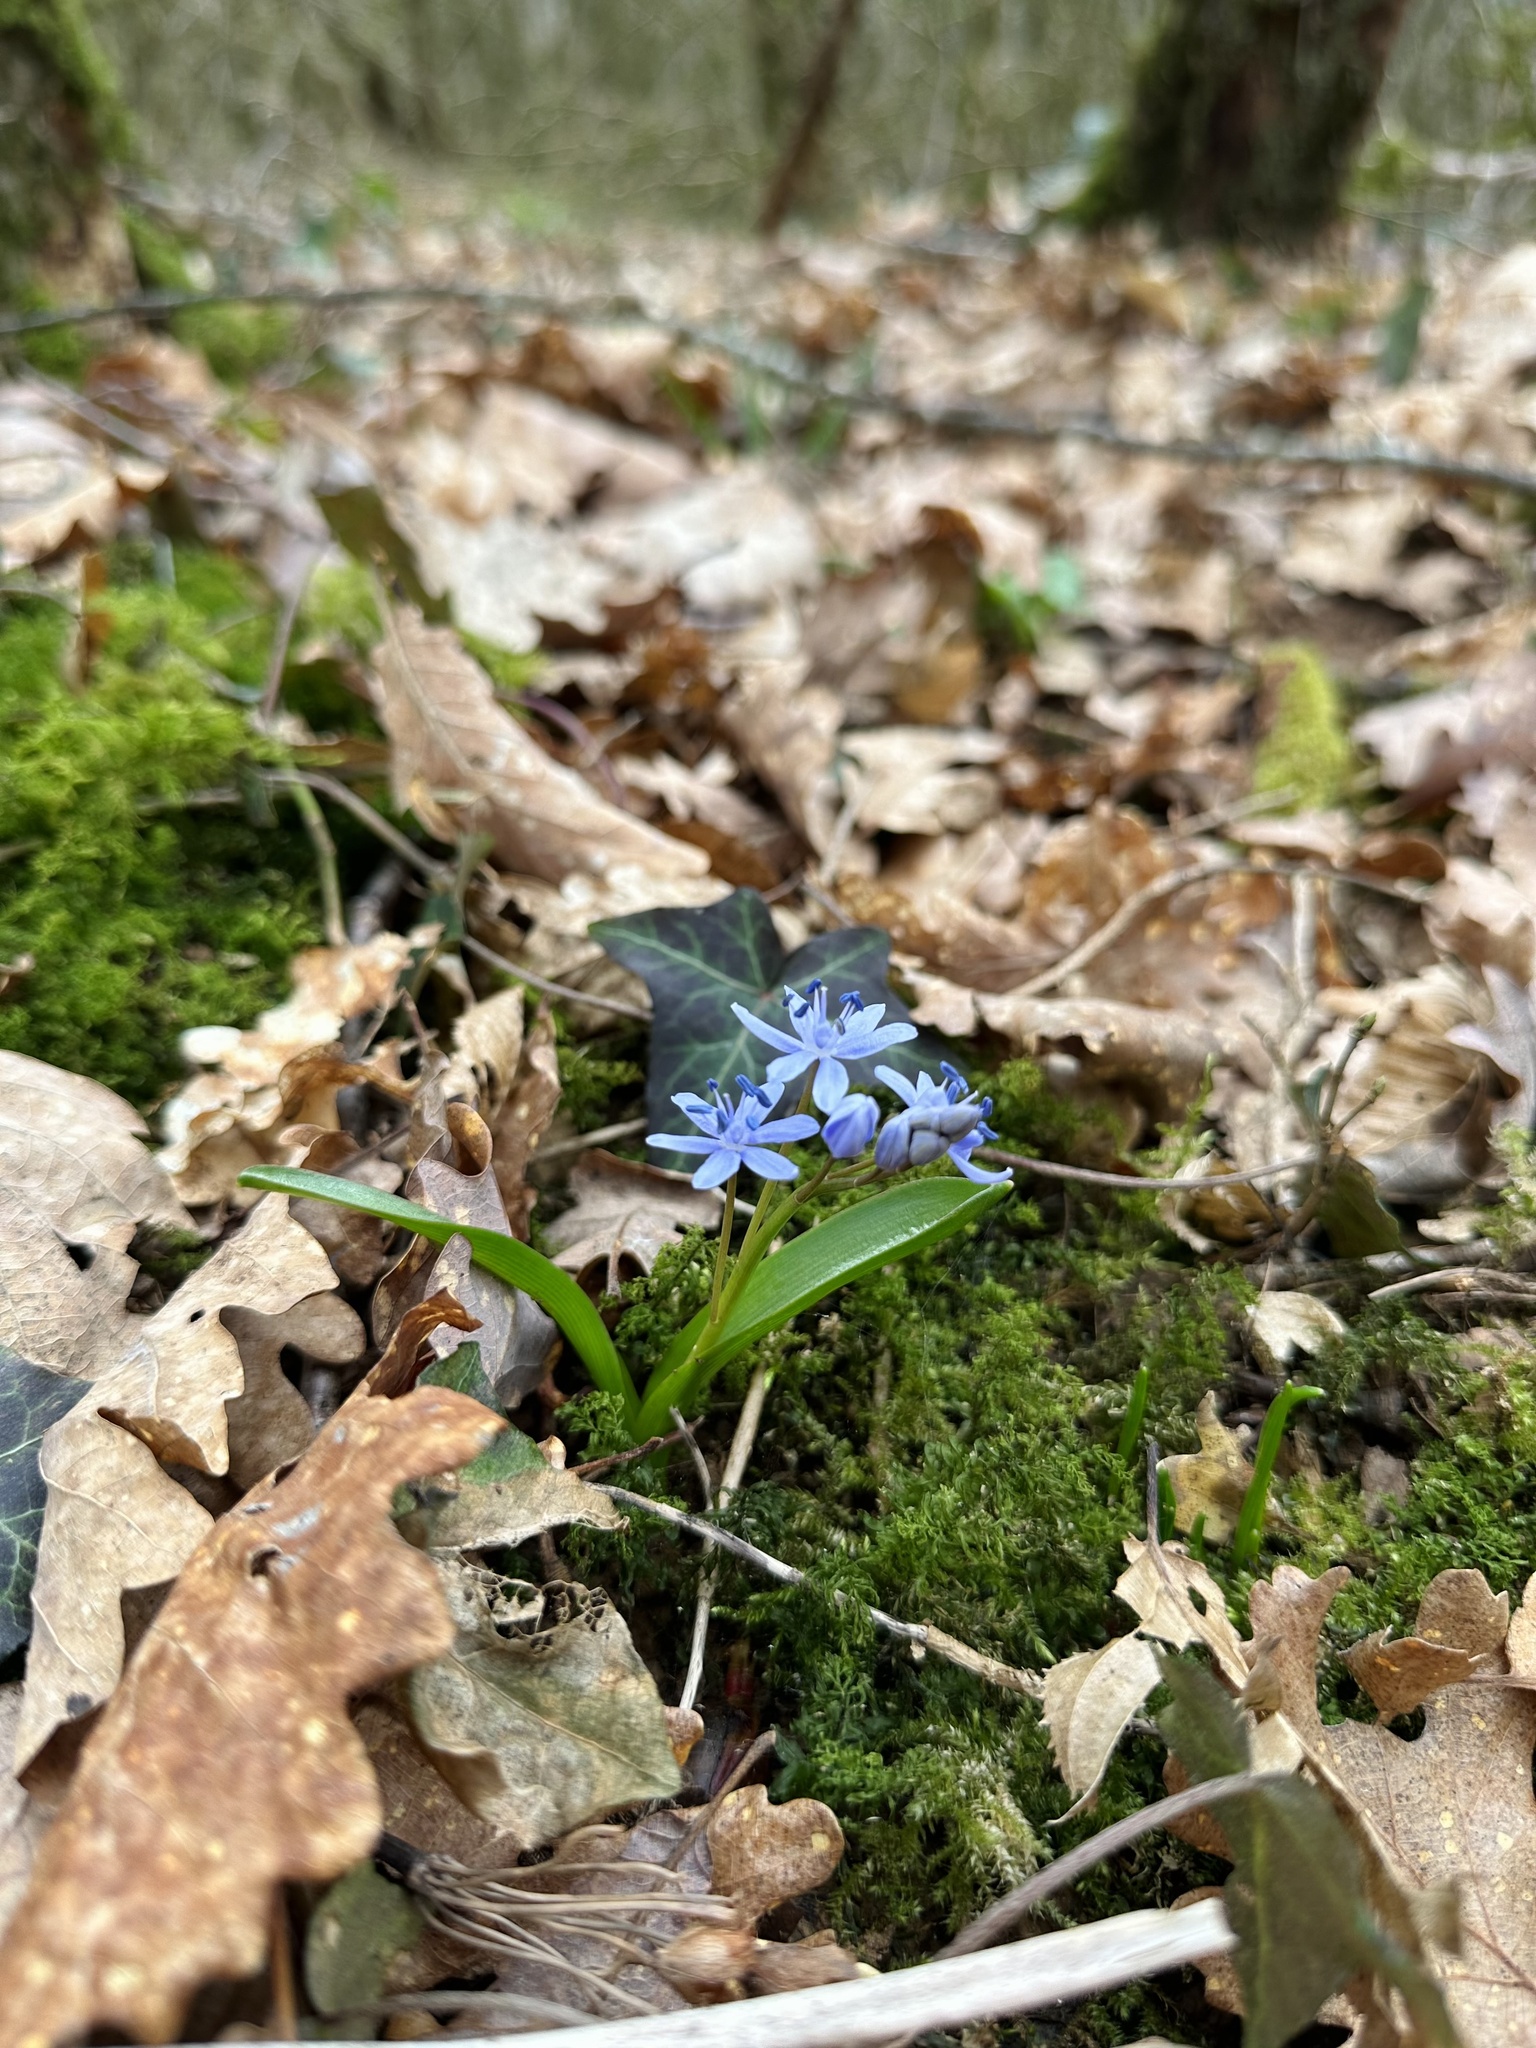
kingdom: Plantae
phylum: Tracheophyta
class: Liliopsida
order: Asparagales
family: Asparagaceae
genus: Scilla
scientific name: Scilla bifolia
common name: Alpine squill
